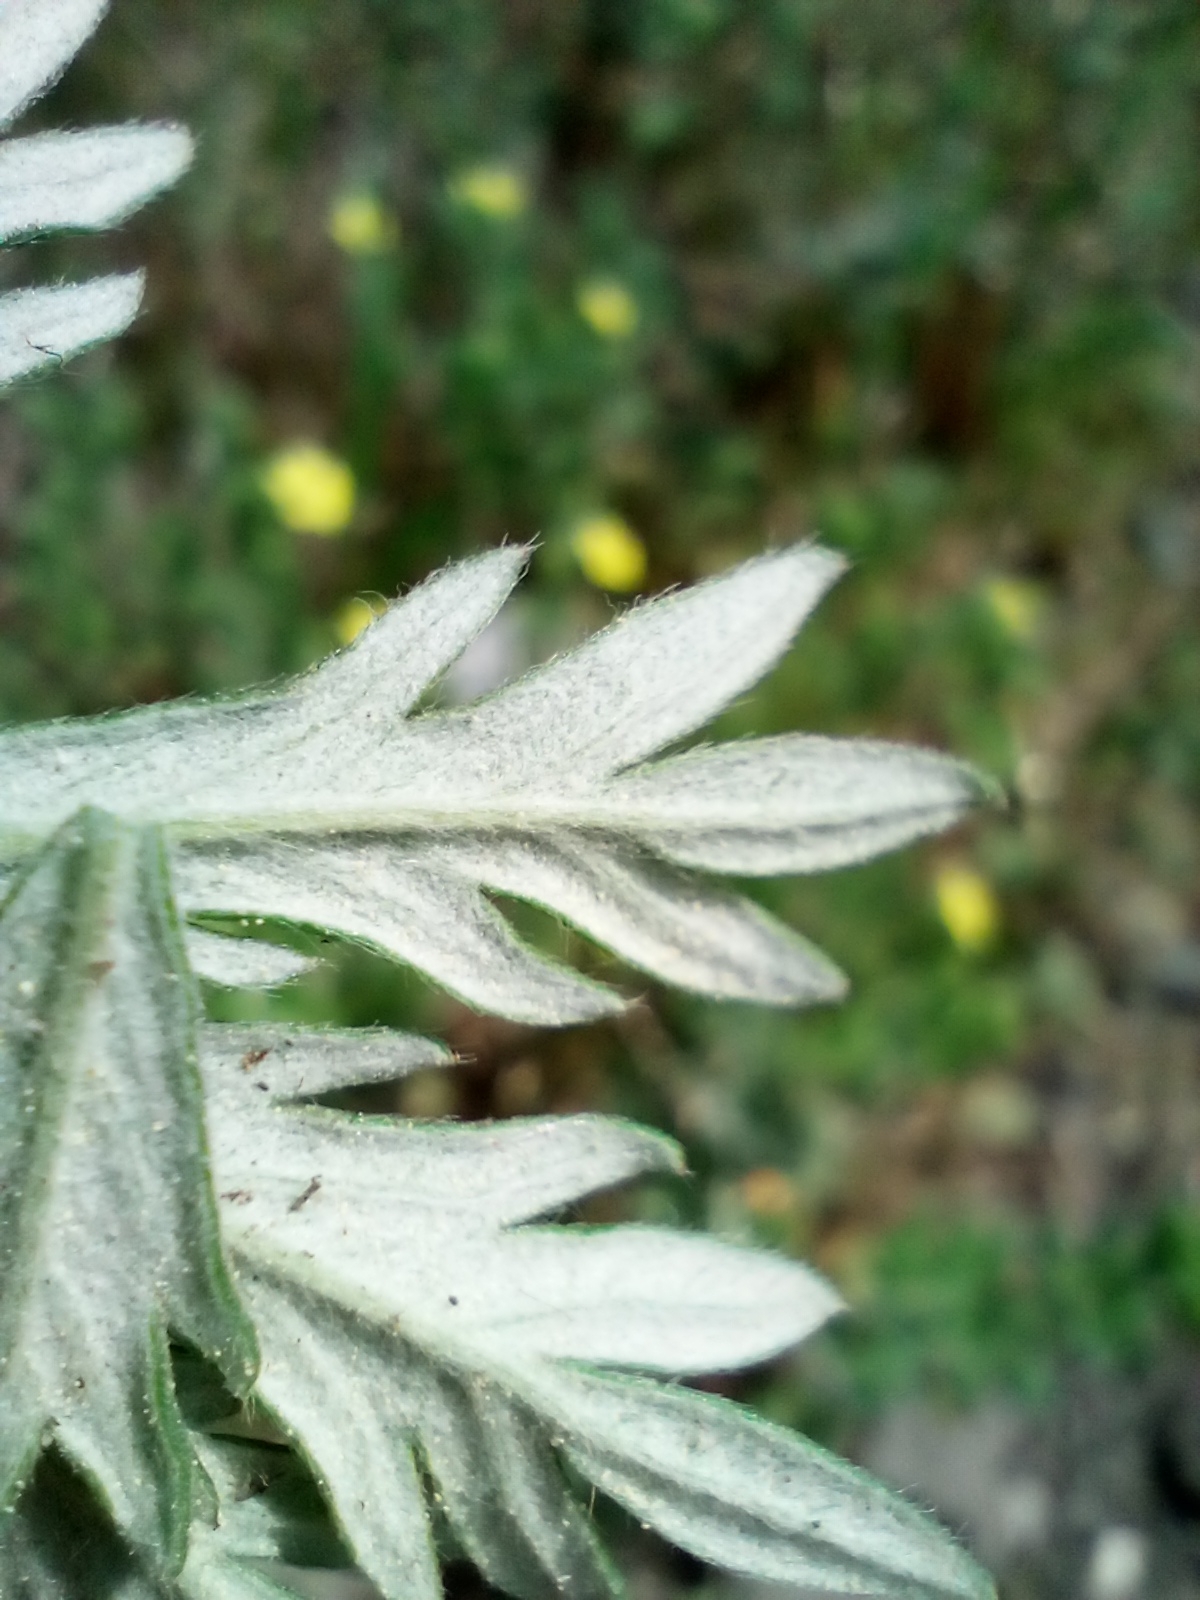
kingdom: Plantae
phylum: Tracheophyta
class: Magnoliopsida
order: Rosales
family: Rosaceae
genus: Potentilla
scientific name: Potentilla argentea
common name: Hoary cinquefoil
